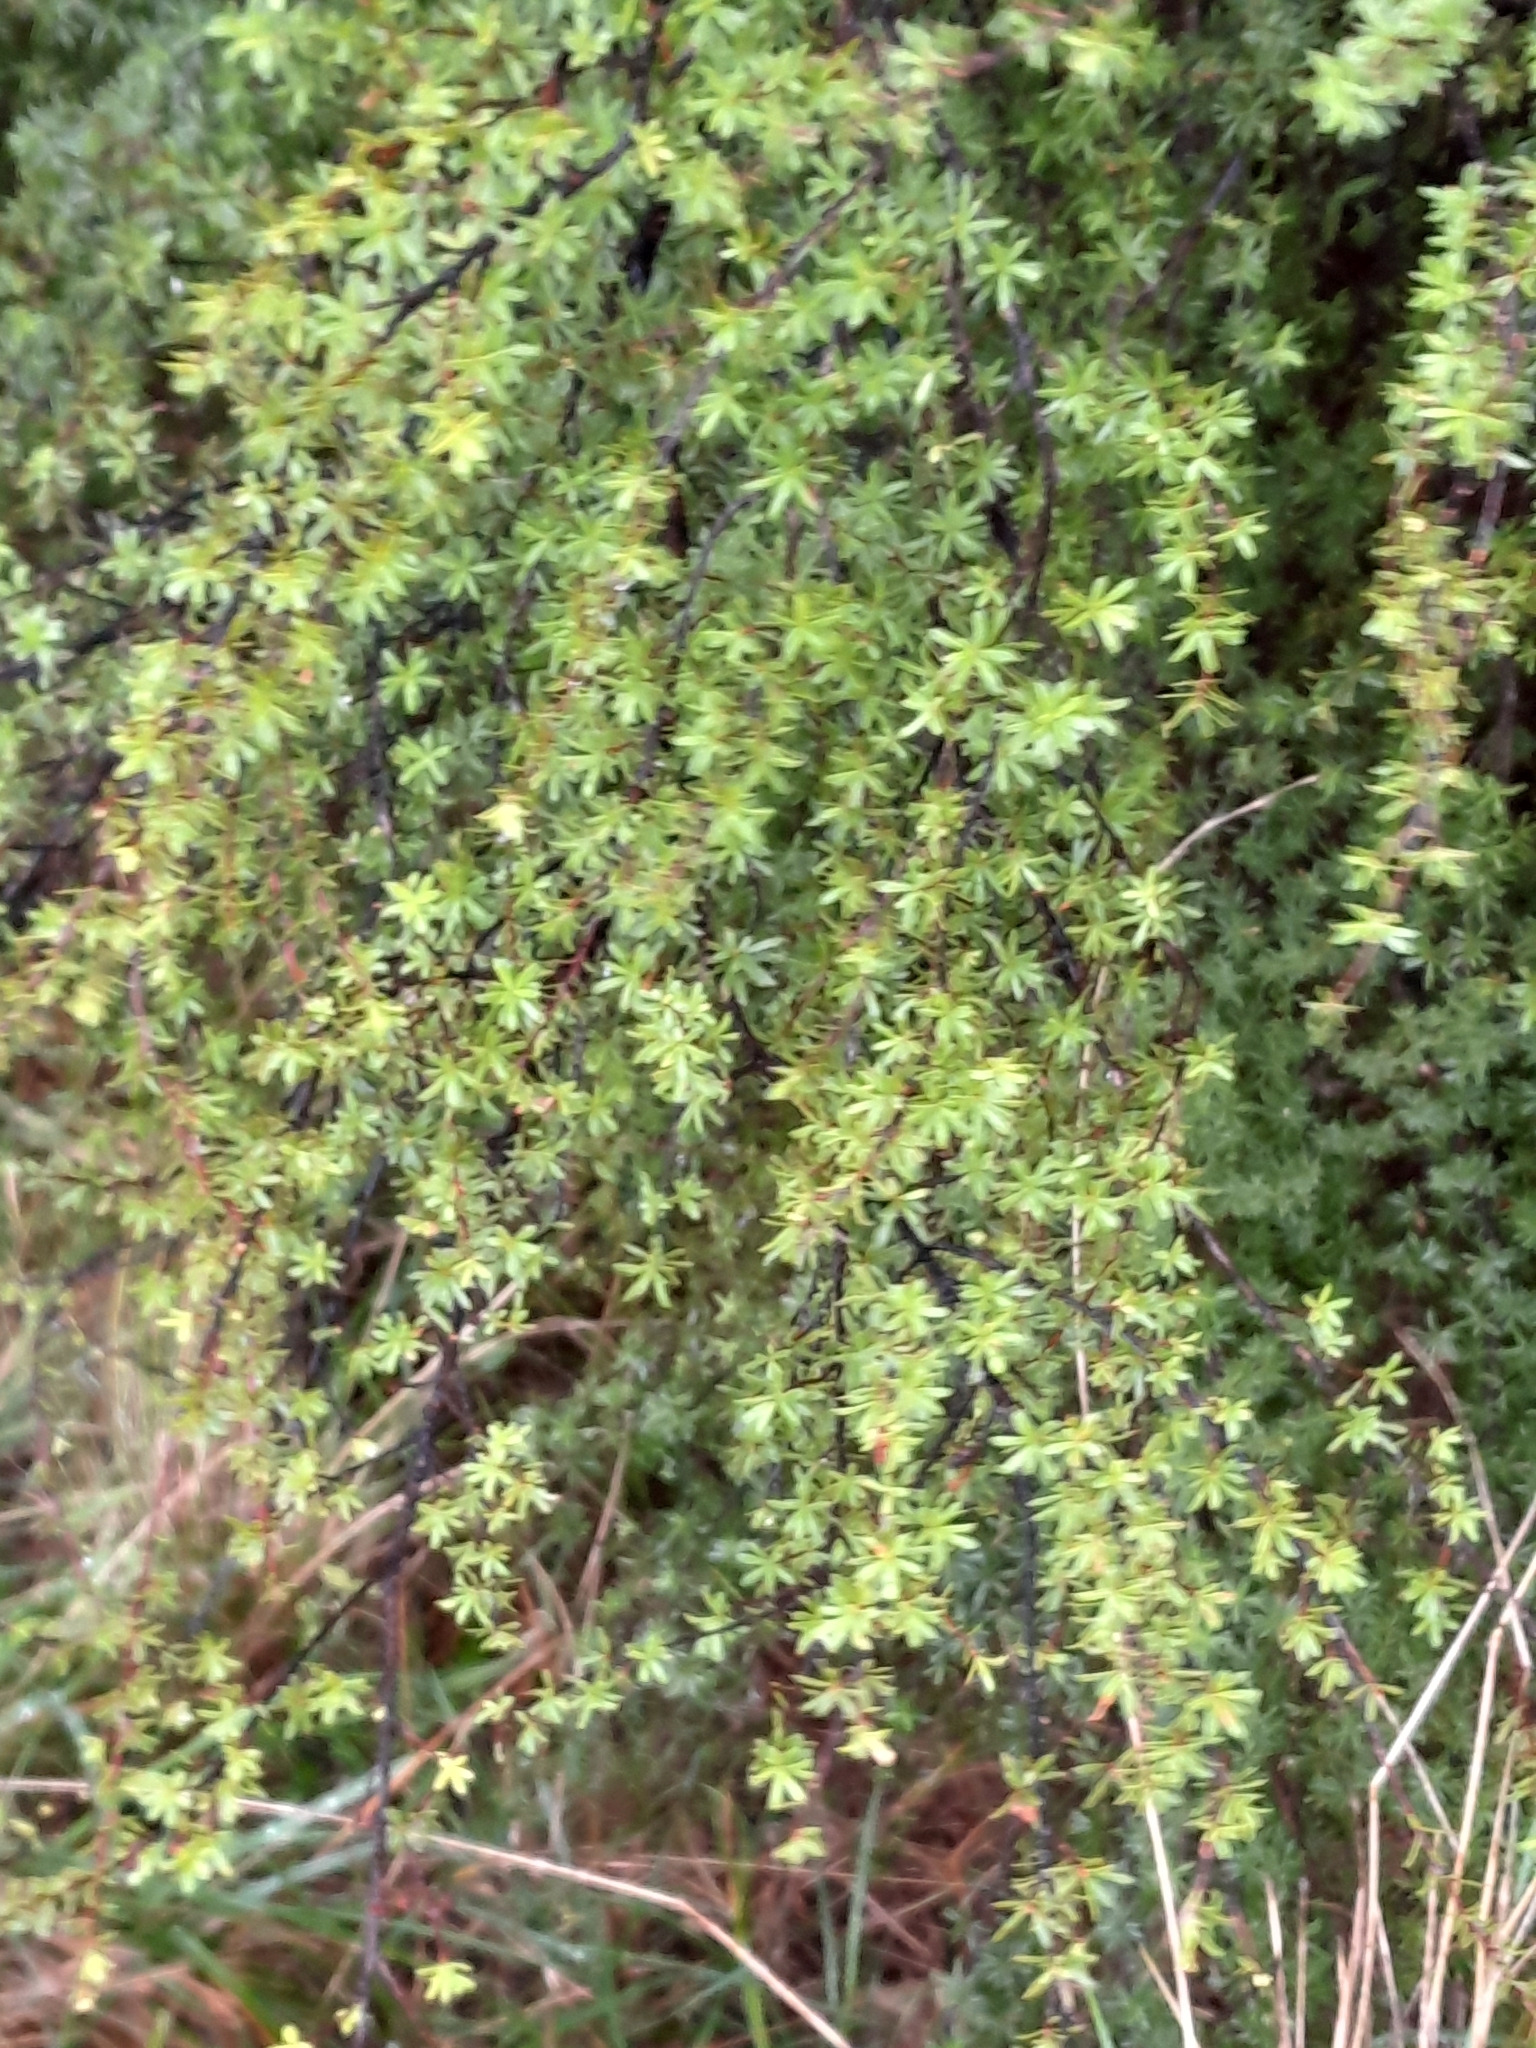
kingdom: Plantae
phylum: Tracheophyta
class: Magnoliopsida
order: Myrtales
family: Myrtaceae
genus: Kunzea
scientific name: Kunzea ericoides
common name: Burgan
